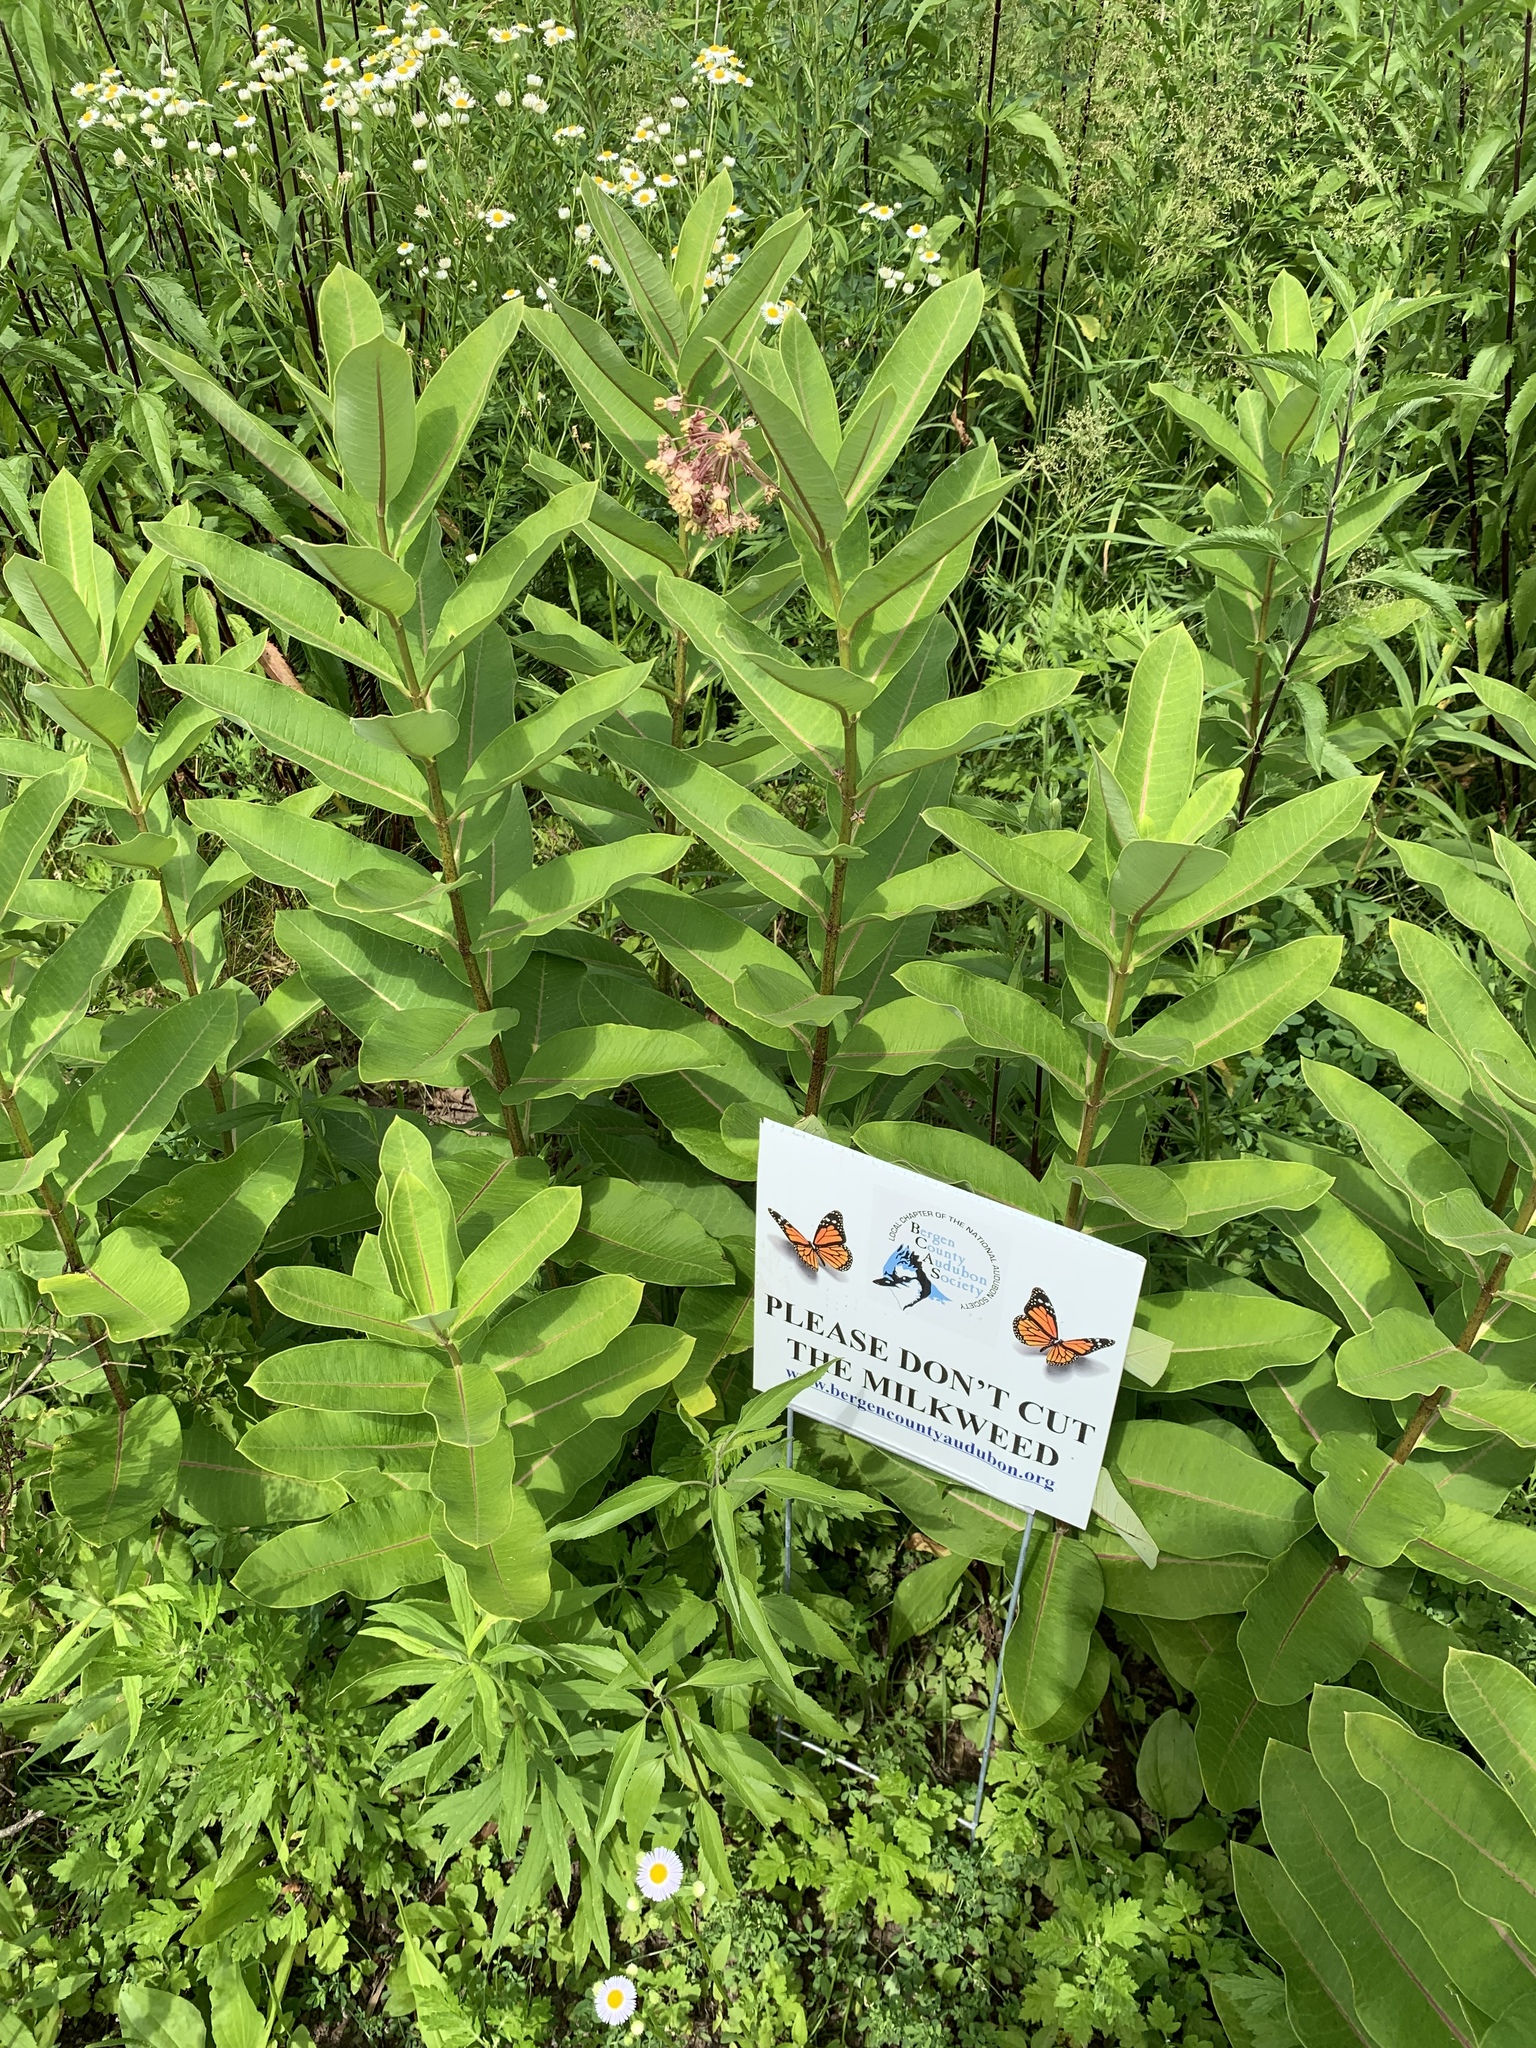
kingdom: Plantae
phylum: Tracheophyta
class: Magnoliopsida
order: Gentianales
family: Apocynaceae
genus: Asclepias
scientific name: Asclepias syriaca
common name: Common milkweed
